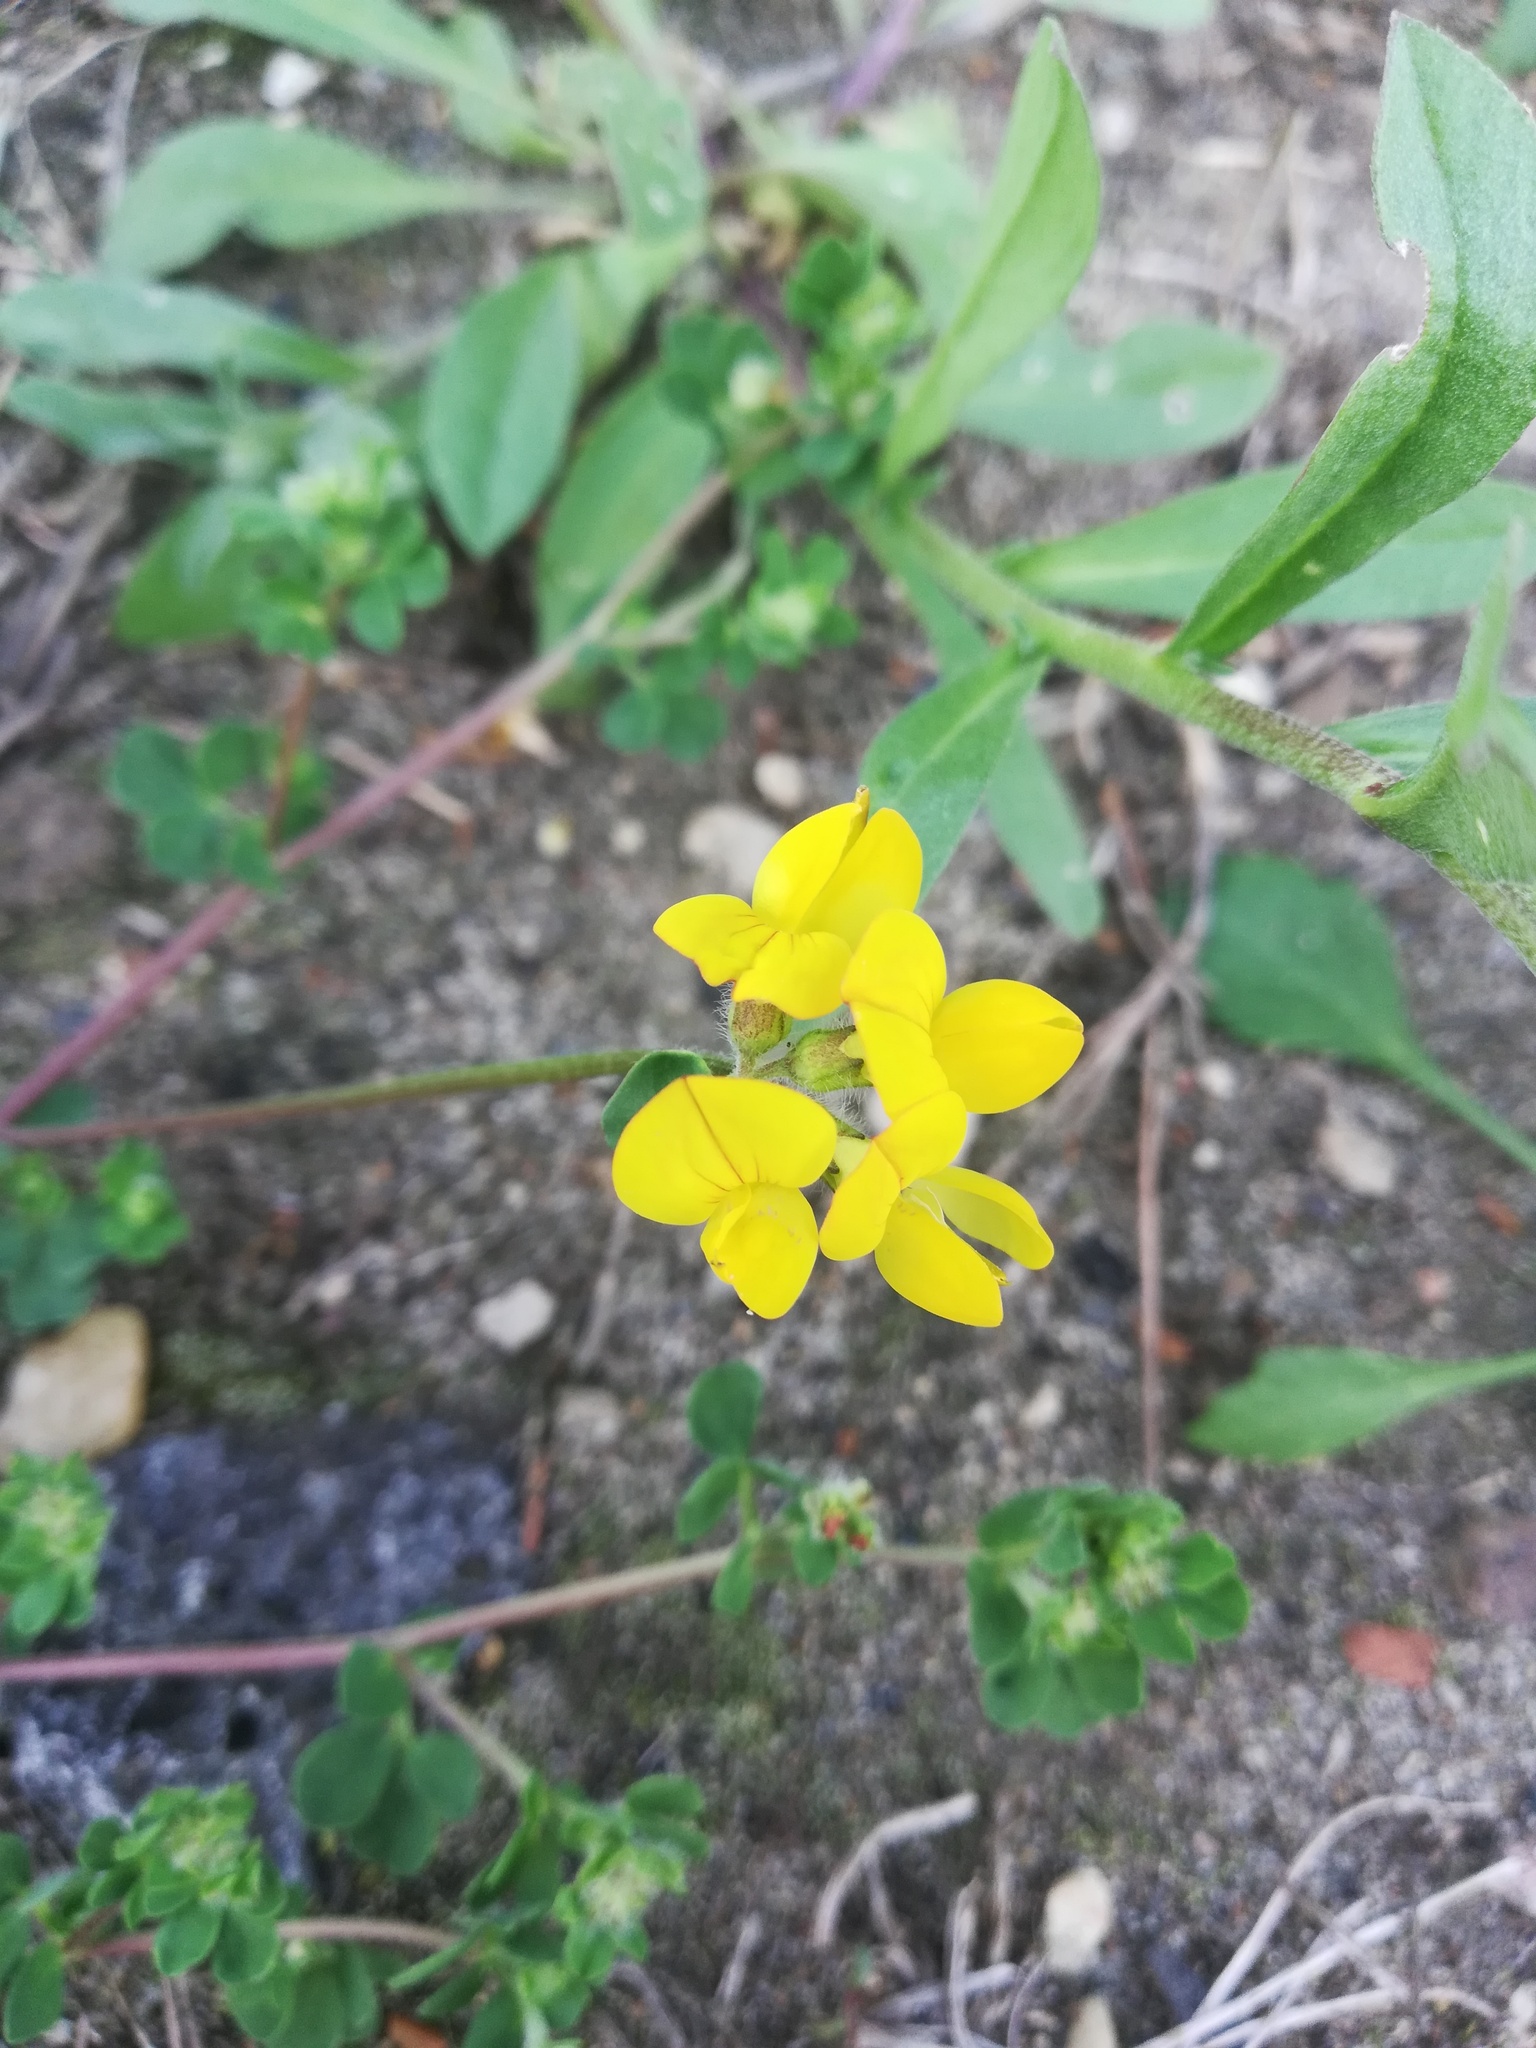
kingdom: Plantae
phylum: Tracheophyta
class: Magnoliopsida
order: Fabales
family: Fabaceae
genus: Lotus
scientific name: Lotus corniculatus
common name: Common bird's-foot-trefoil
